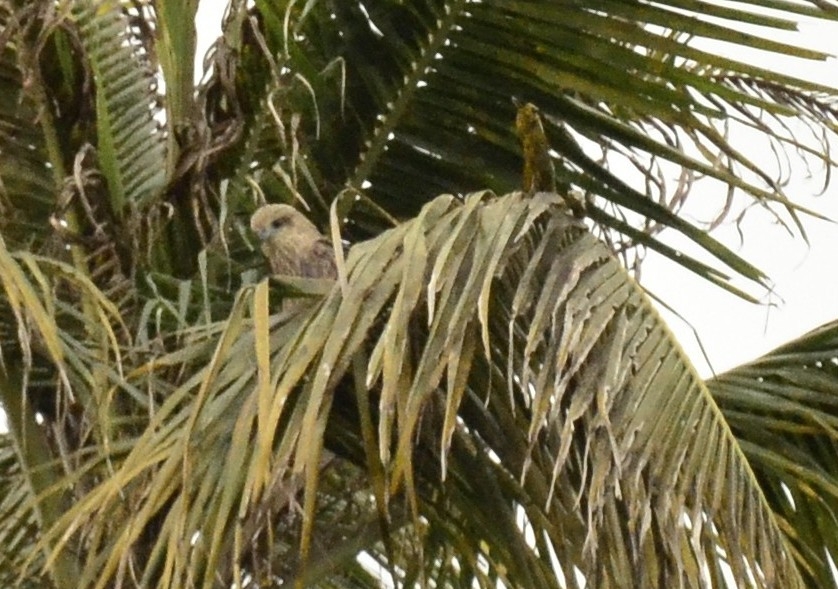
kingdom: Animalia
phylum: Chordata
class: Aves
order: Accipitriformes
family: Accipitridae
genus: Haliastur
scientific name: Haliastur indus
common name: Brahminy kite
